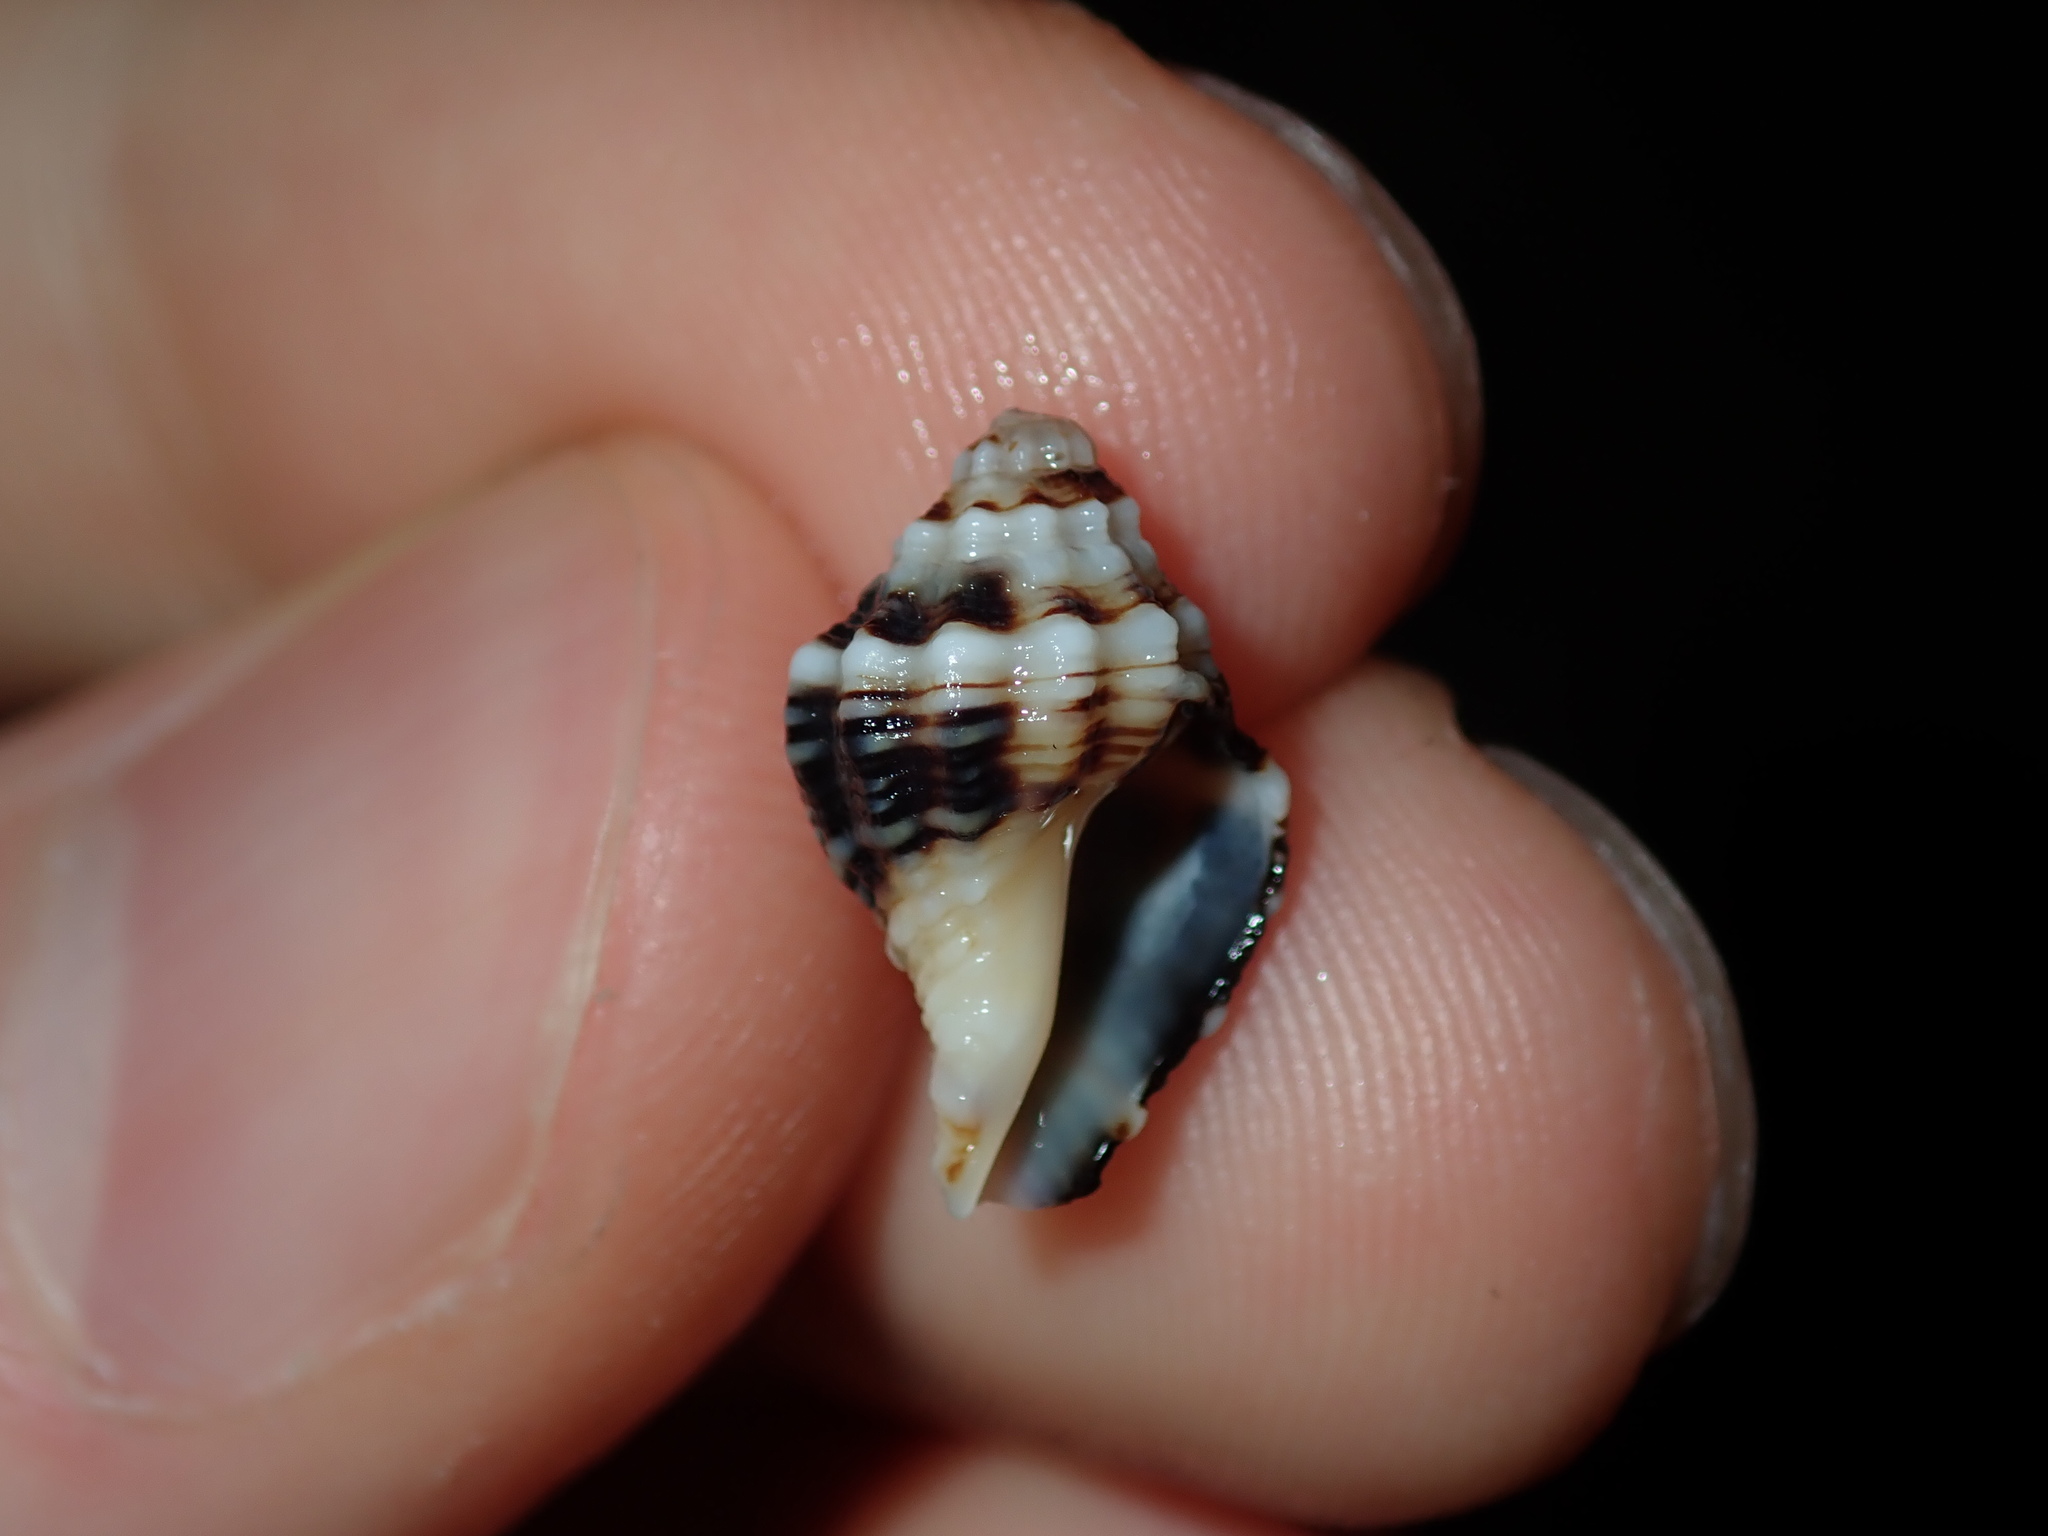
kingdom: Animalia
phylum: Mollusca
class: Gastropoda
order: Neogastropoda
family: Muricidae
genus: Cronia
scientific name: Cronia aurantiaca
